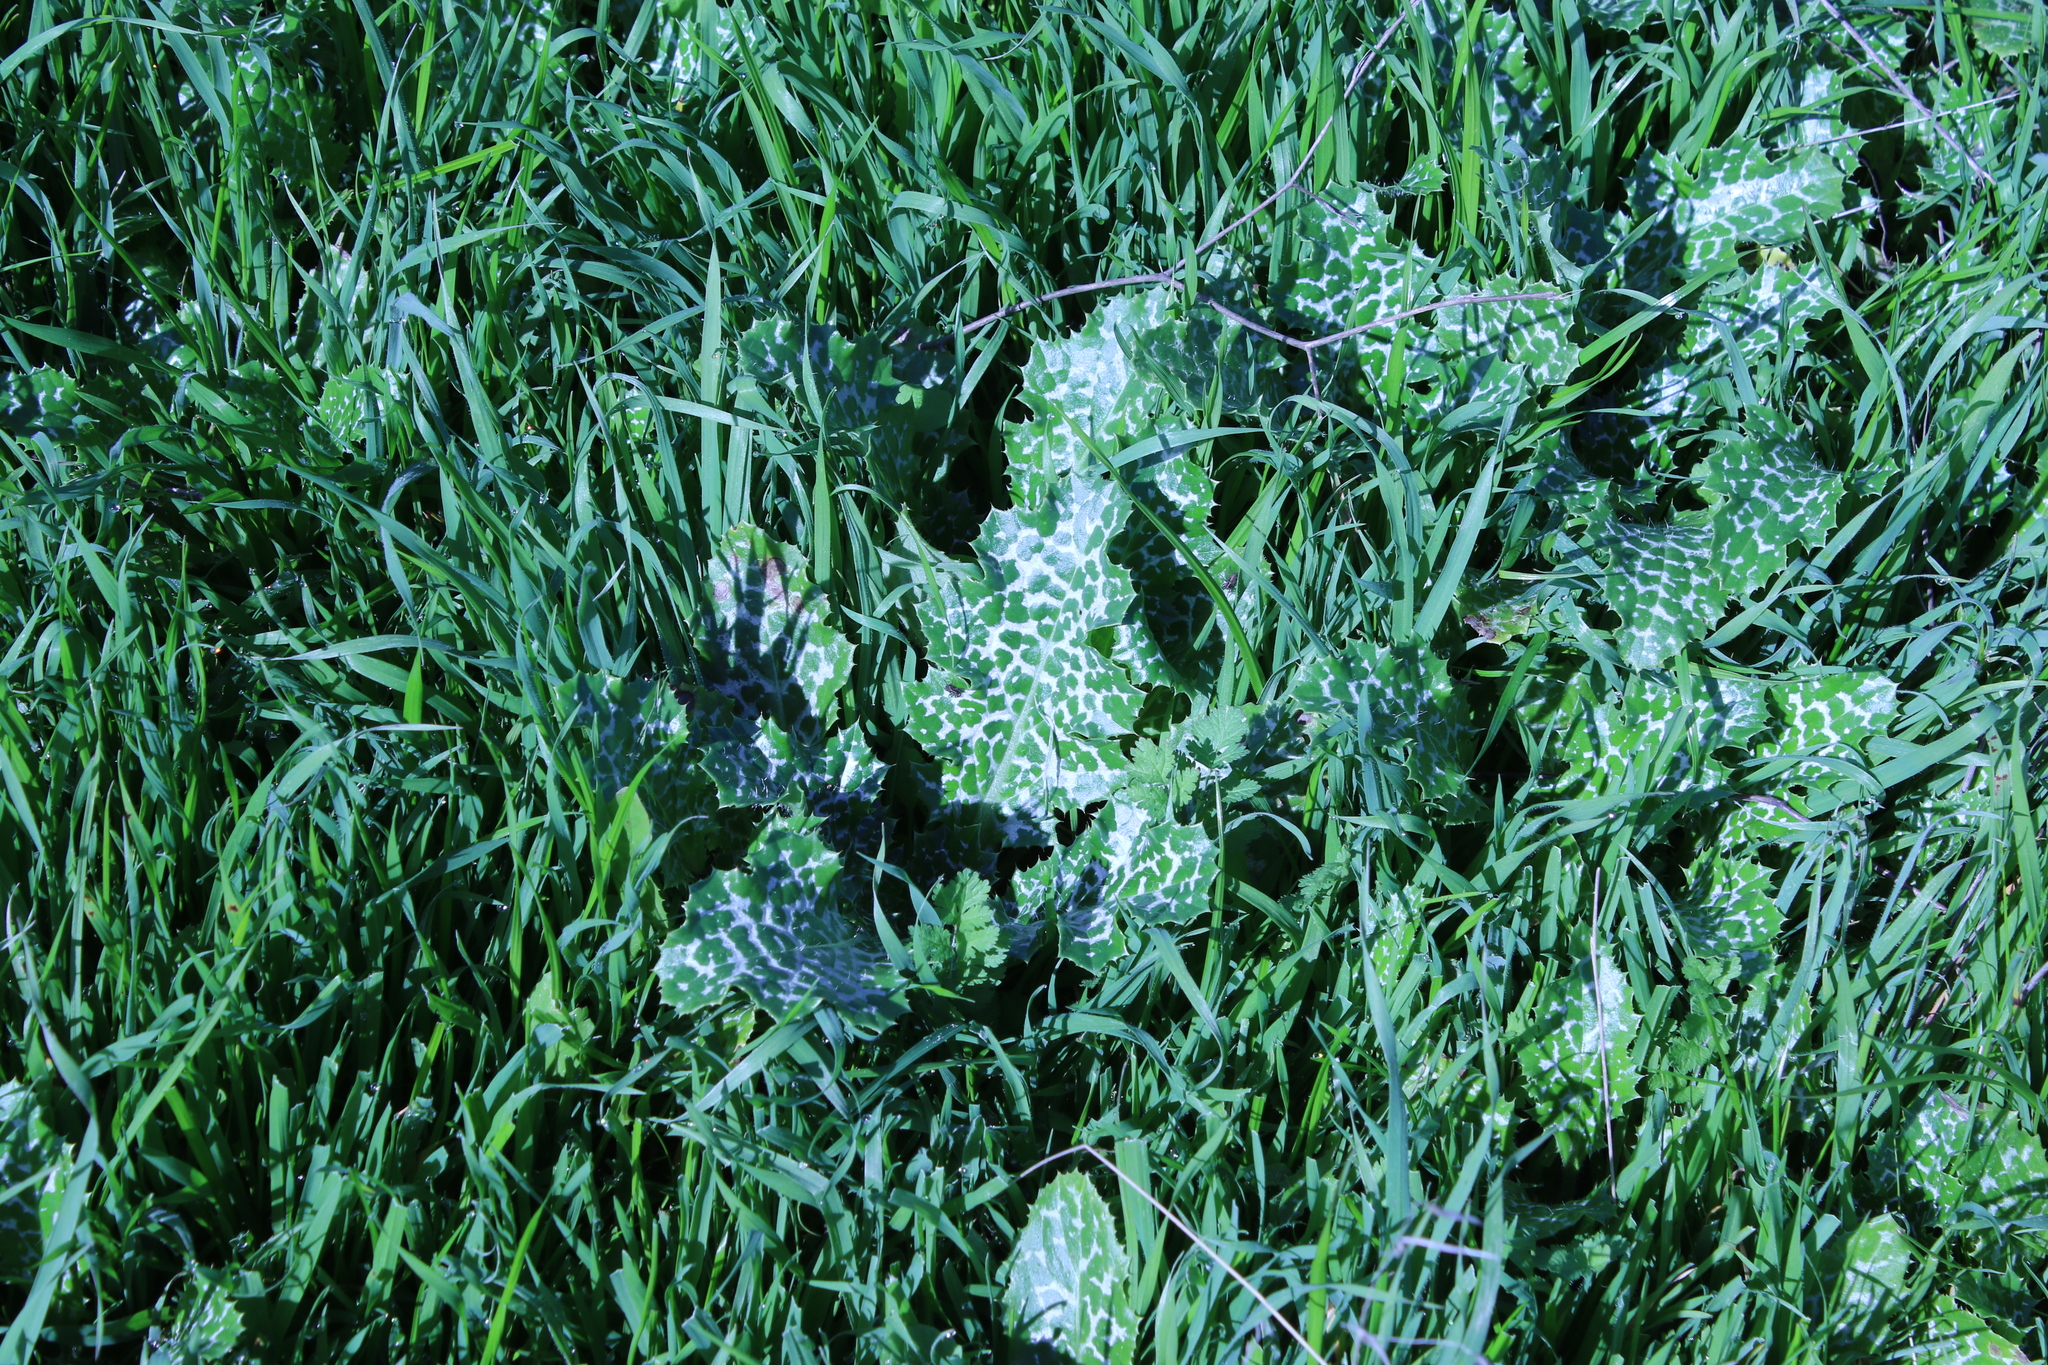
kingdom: Plantae
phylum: Tracheophyta
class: Magnoliopsida
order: Asterales
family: Asteraceae
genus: Silybum
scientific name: Silybum marianum
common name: Milk thistle
